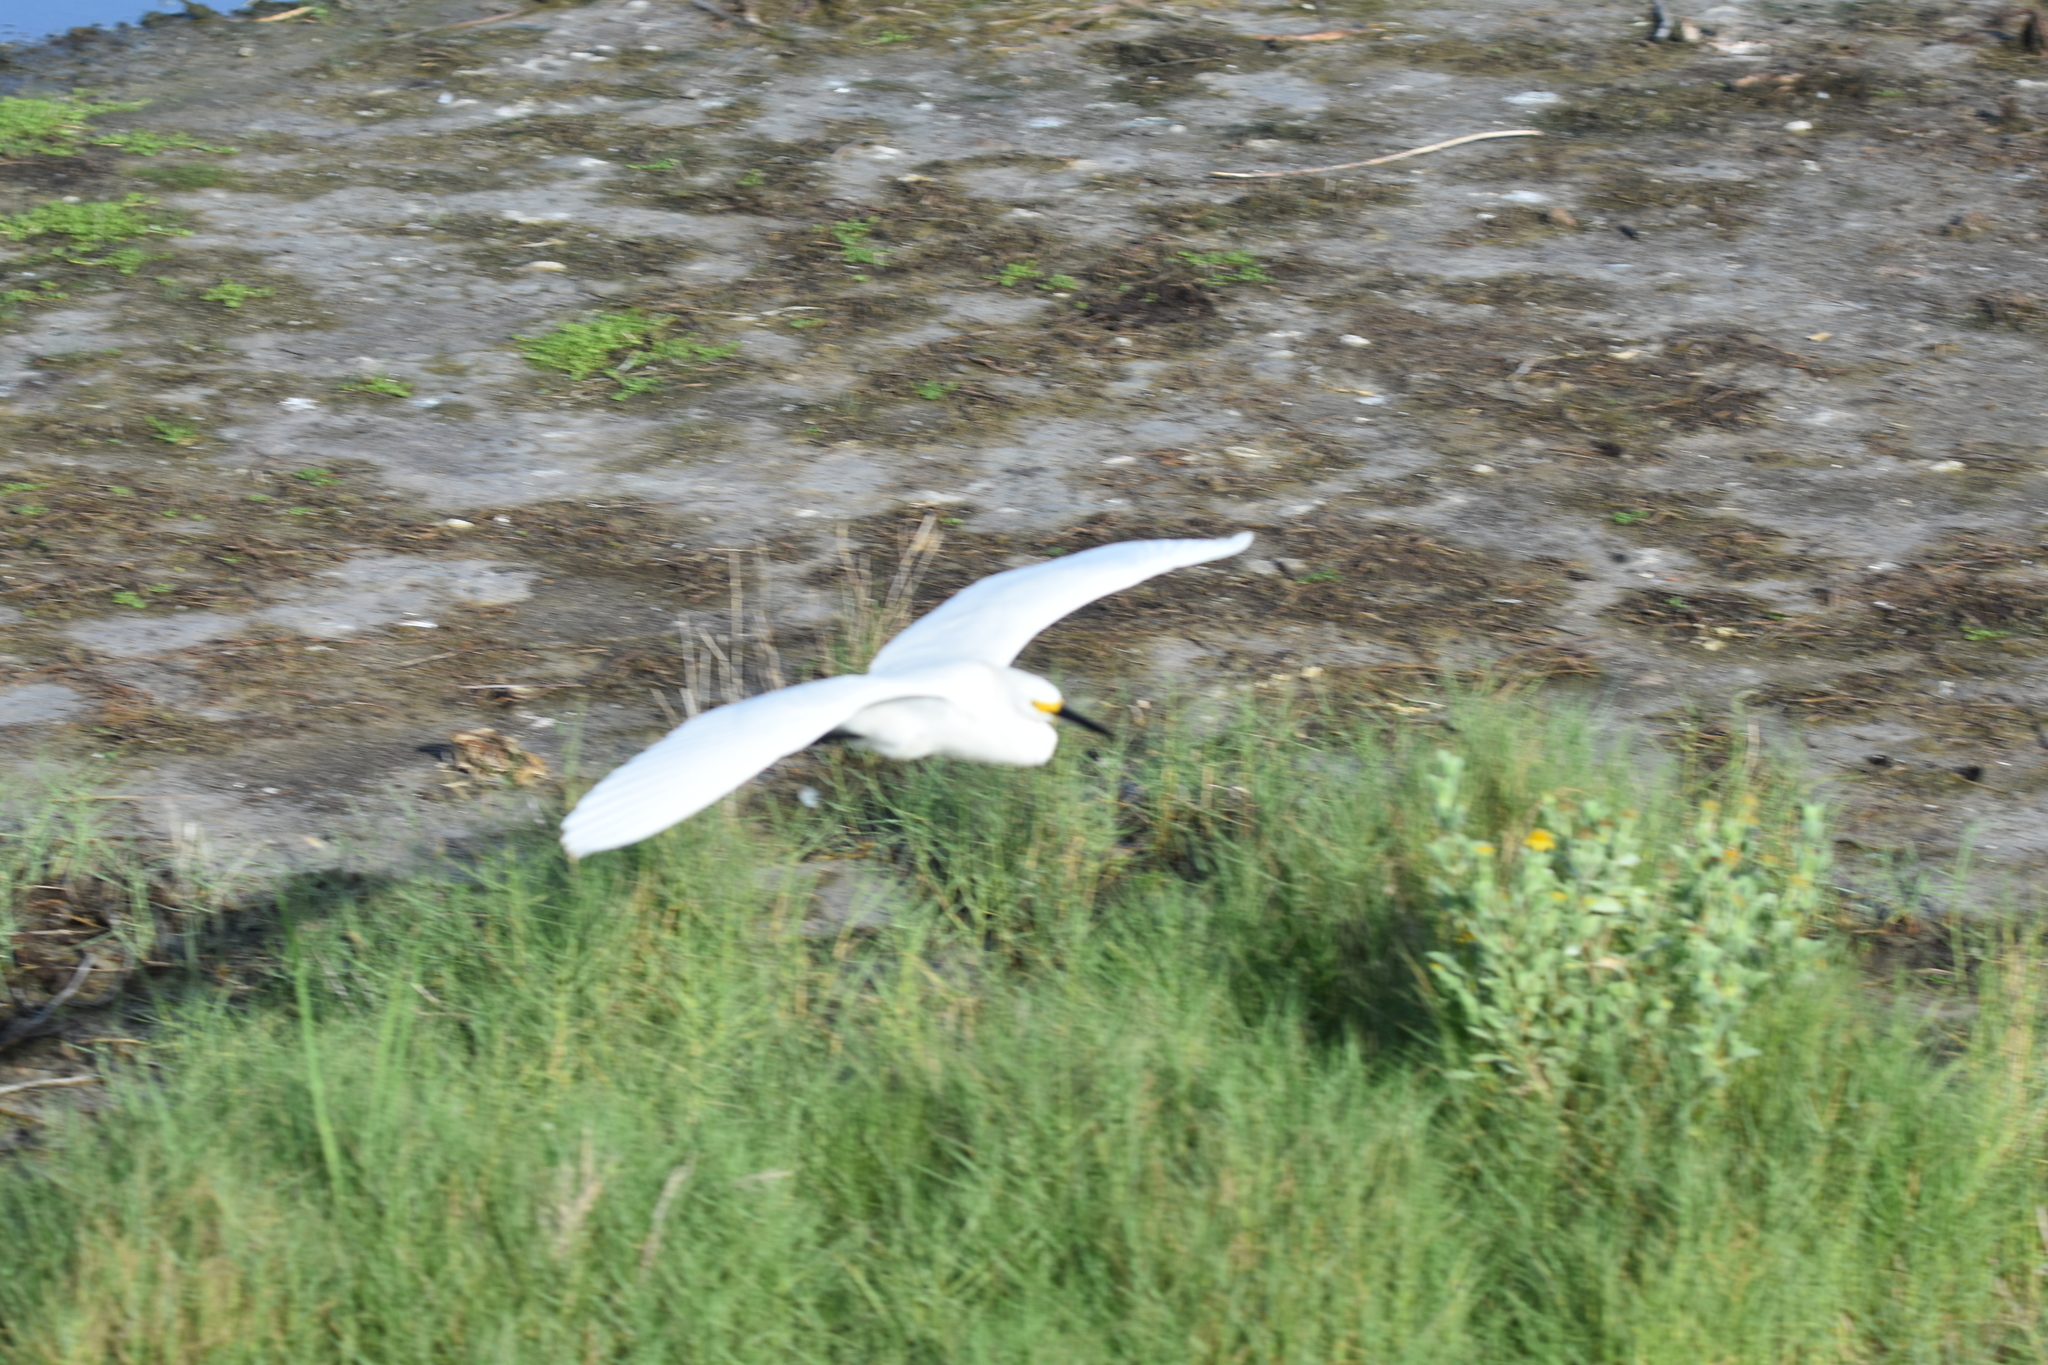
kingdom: Animalia
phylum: Chordata
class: Aves
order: Pelecaniformes
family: Ardeidae
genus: Egretta
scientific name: Egretta thula
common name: Snowy egret
